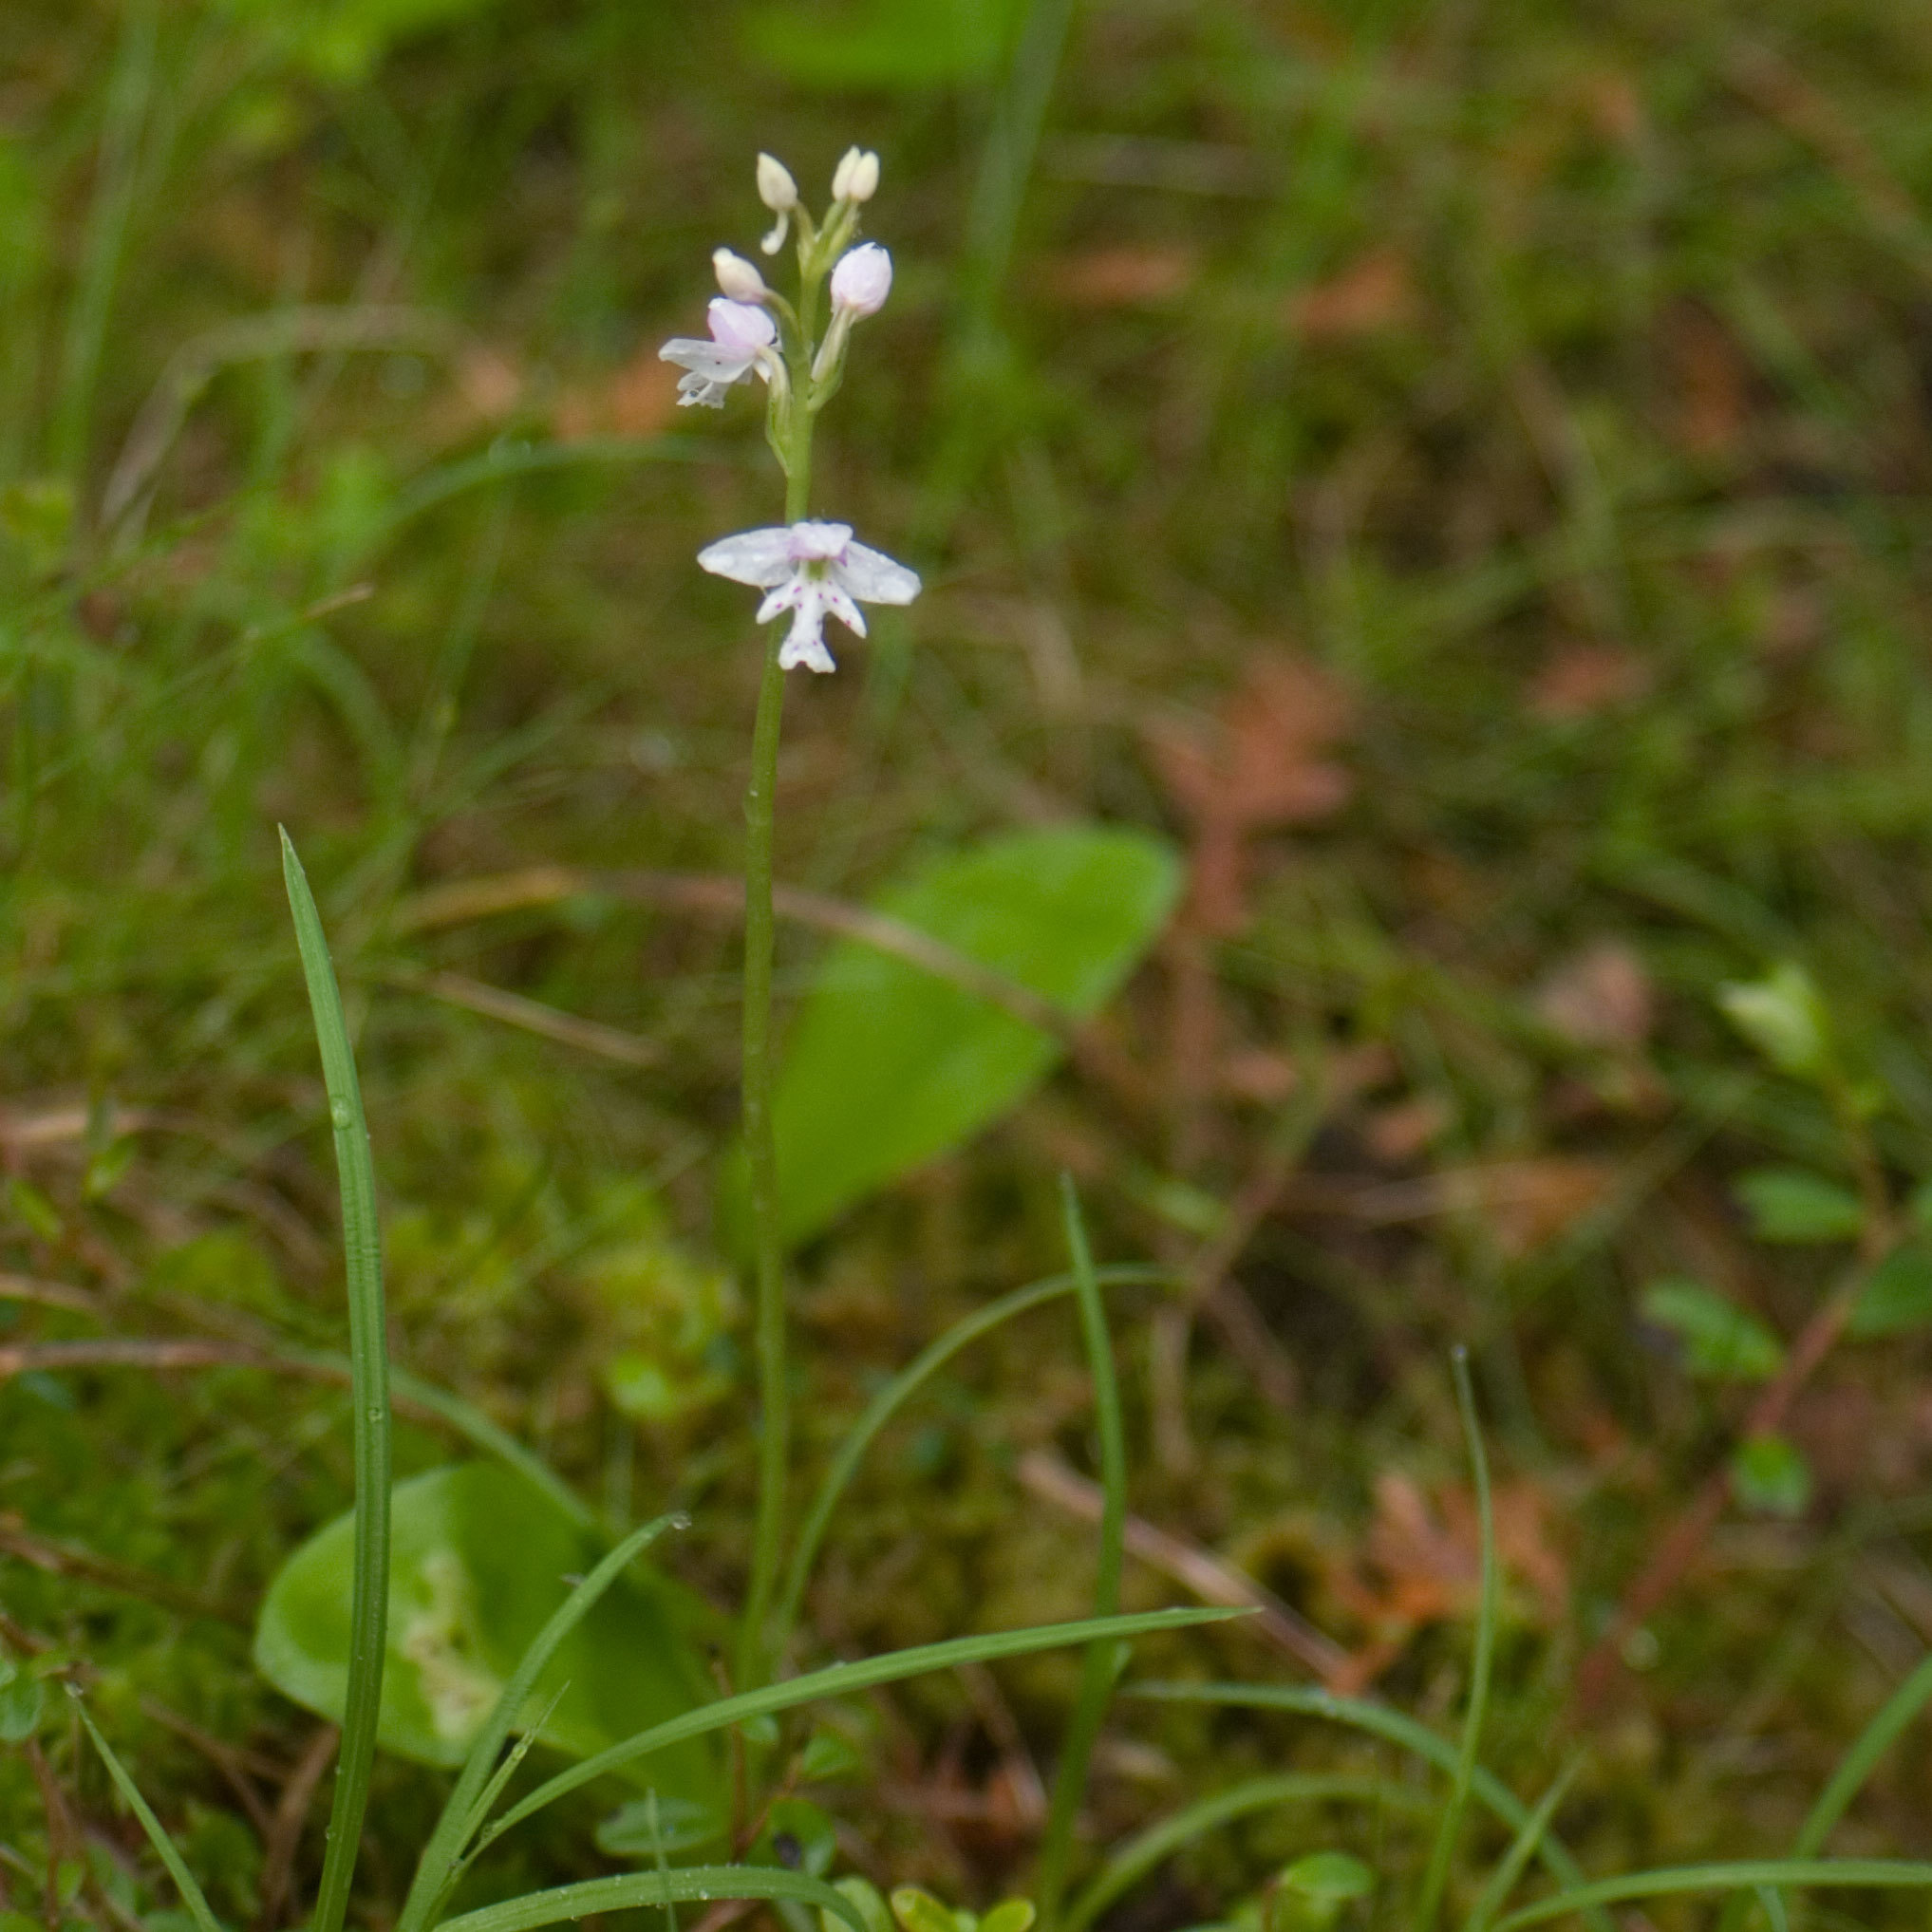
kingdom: Plantae
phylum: Tracheophyta
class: Liliopsida
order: Asparagales
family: Orchidaceae
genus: Galearis
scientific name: Galearis rotundifolia
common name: One-leaved orchis
